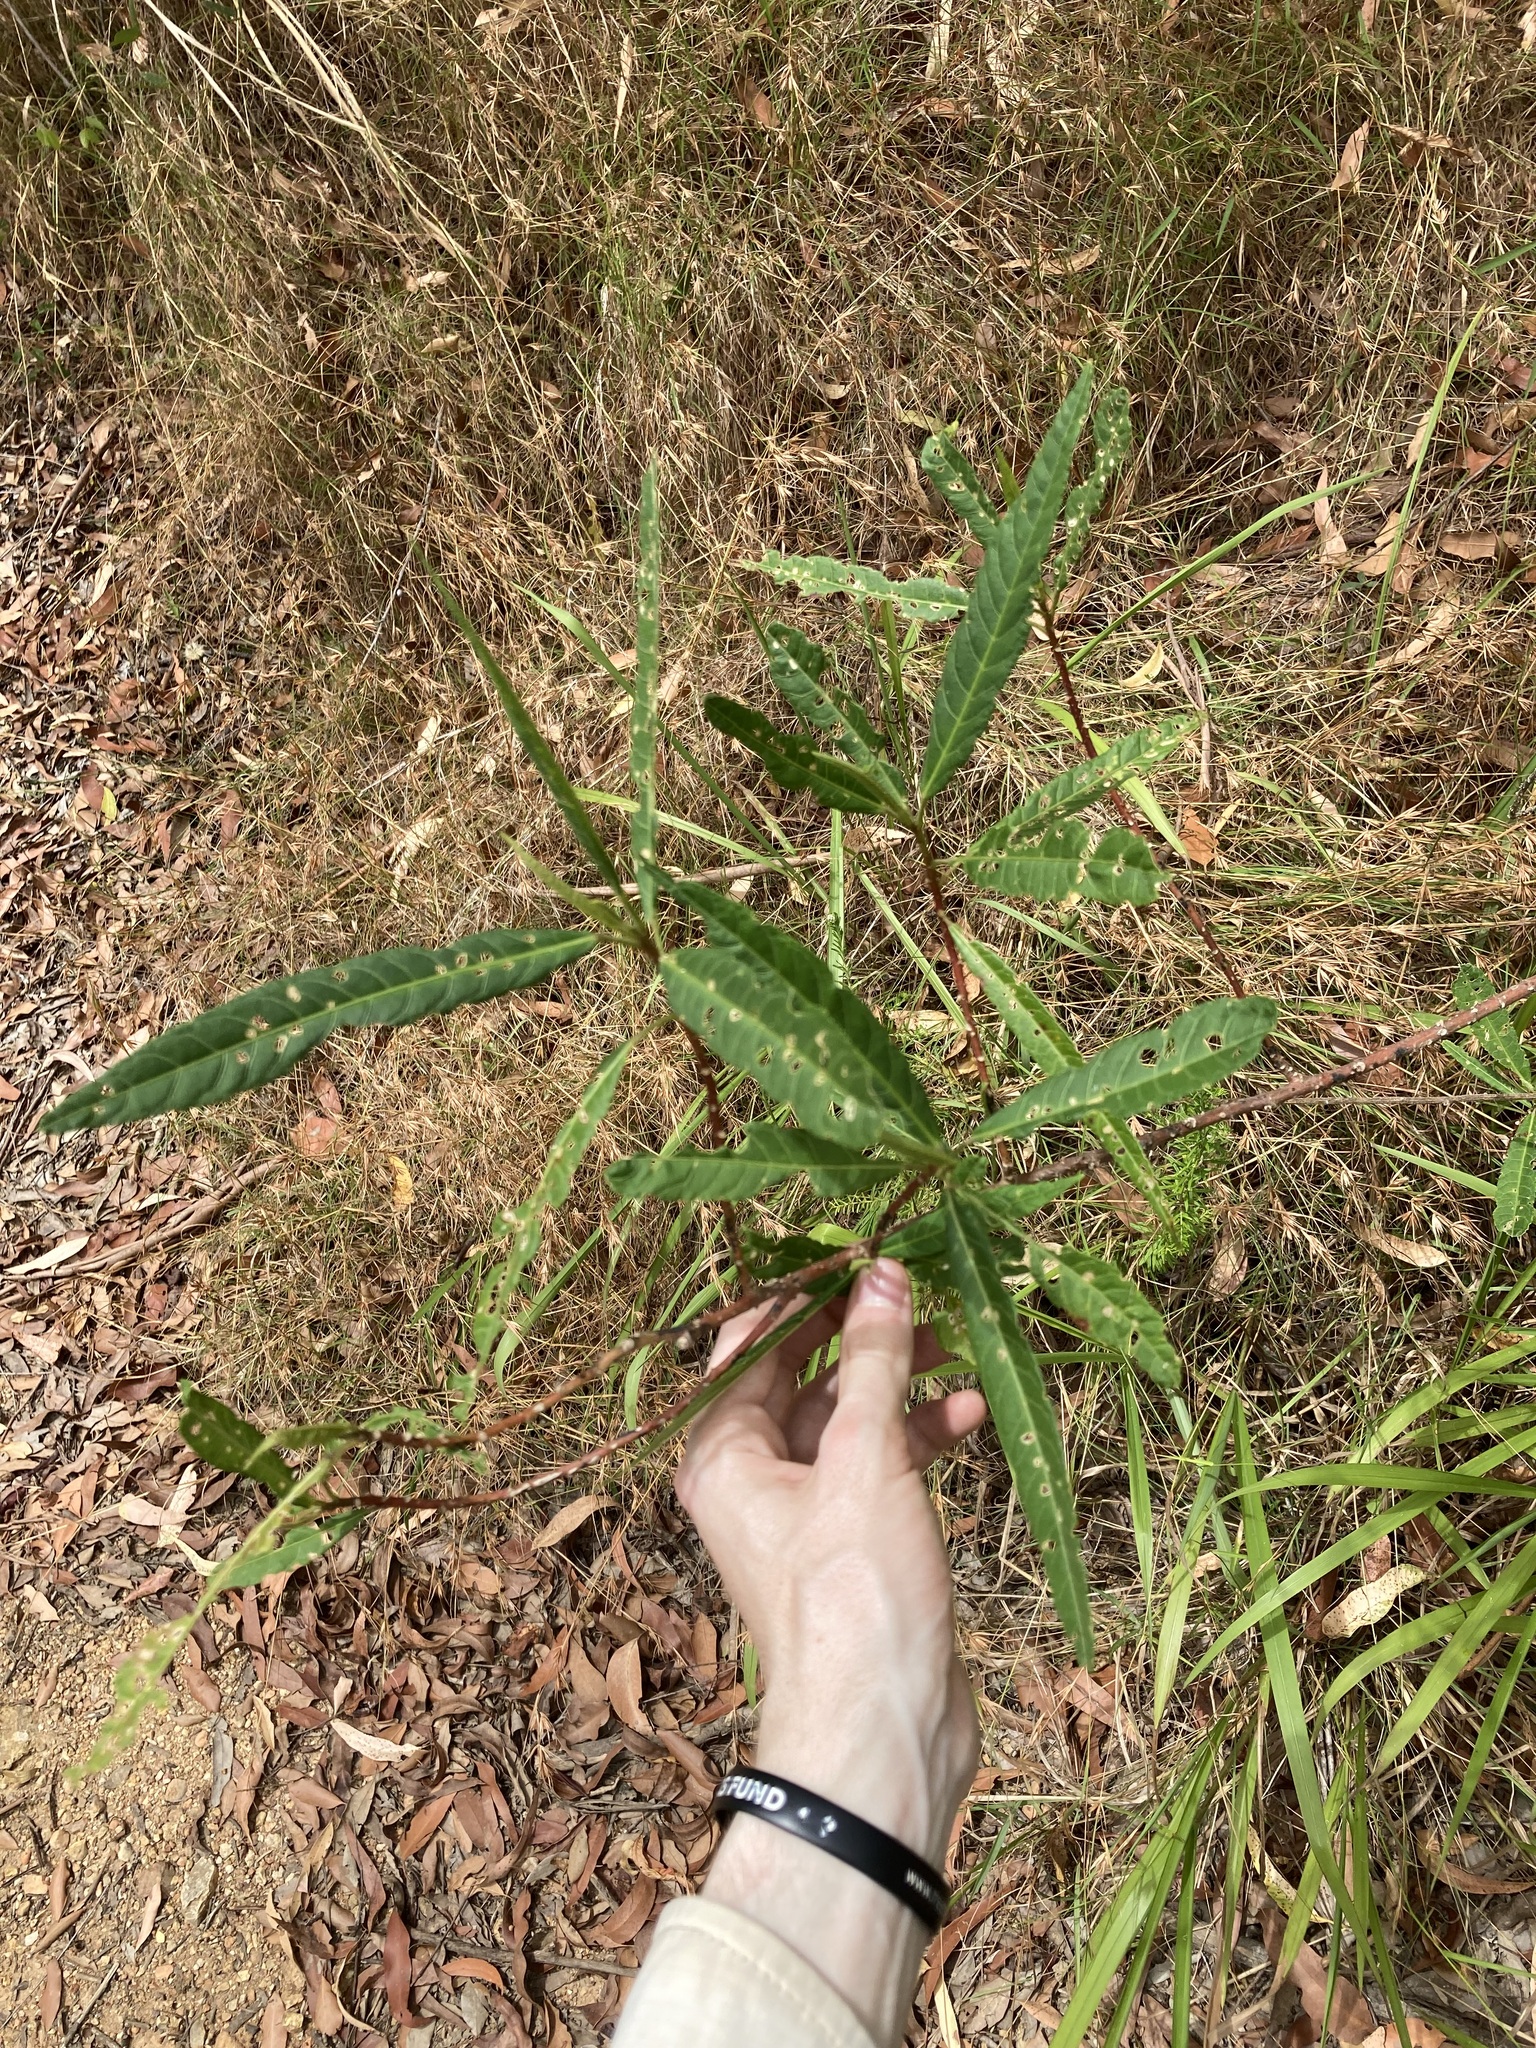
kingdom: Plantae
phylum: Tracheophyta
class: Magnoliopsida
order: Malvales
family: Malvaceae
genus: Hibiscus
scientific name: Hibiscus heterophyllus
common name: Queensland-sorrel
